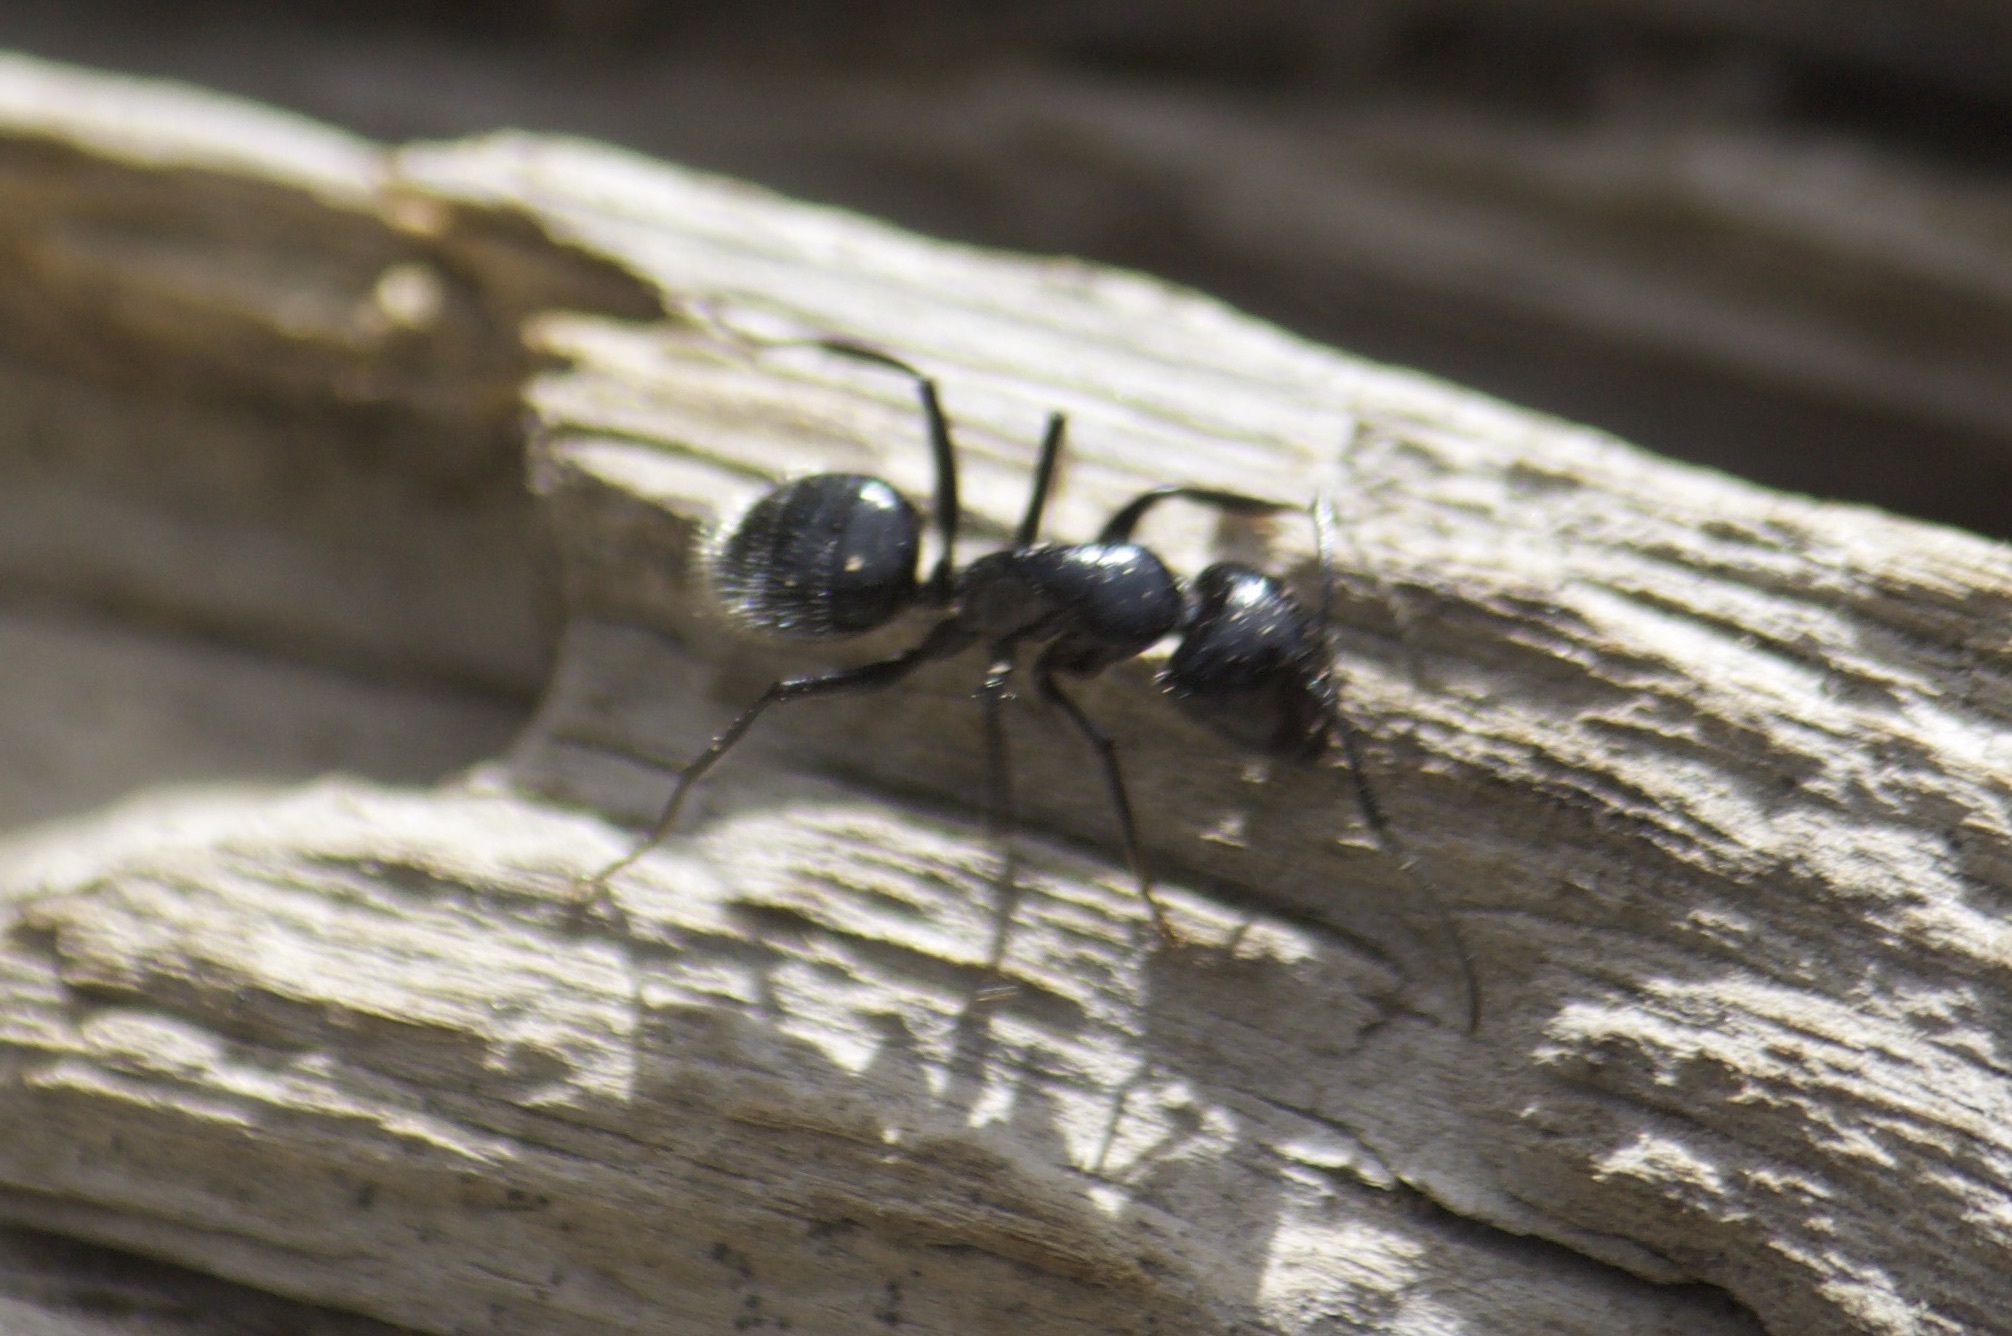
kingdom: Animalia
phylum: Arthropoda
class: Insecta
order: Hymenoptera
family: Formicidae
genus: Camponotus
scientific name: Camponotus
